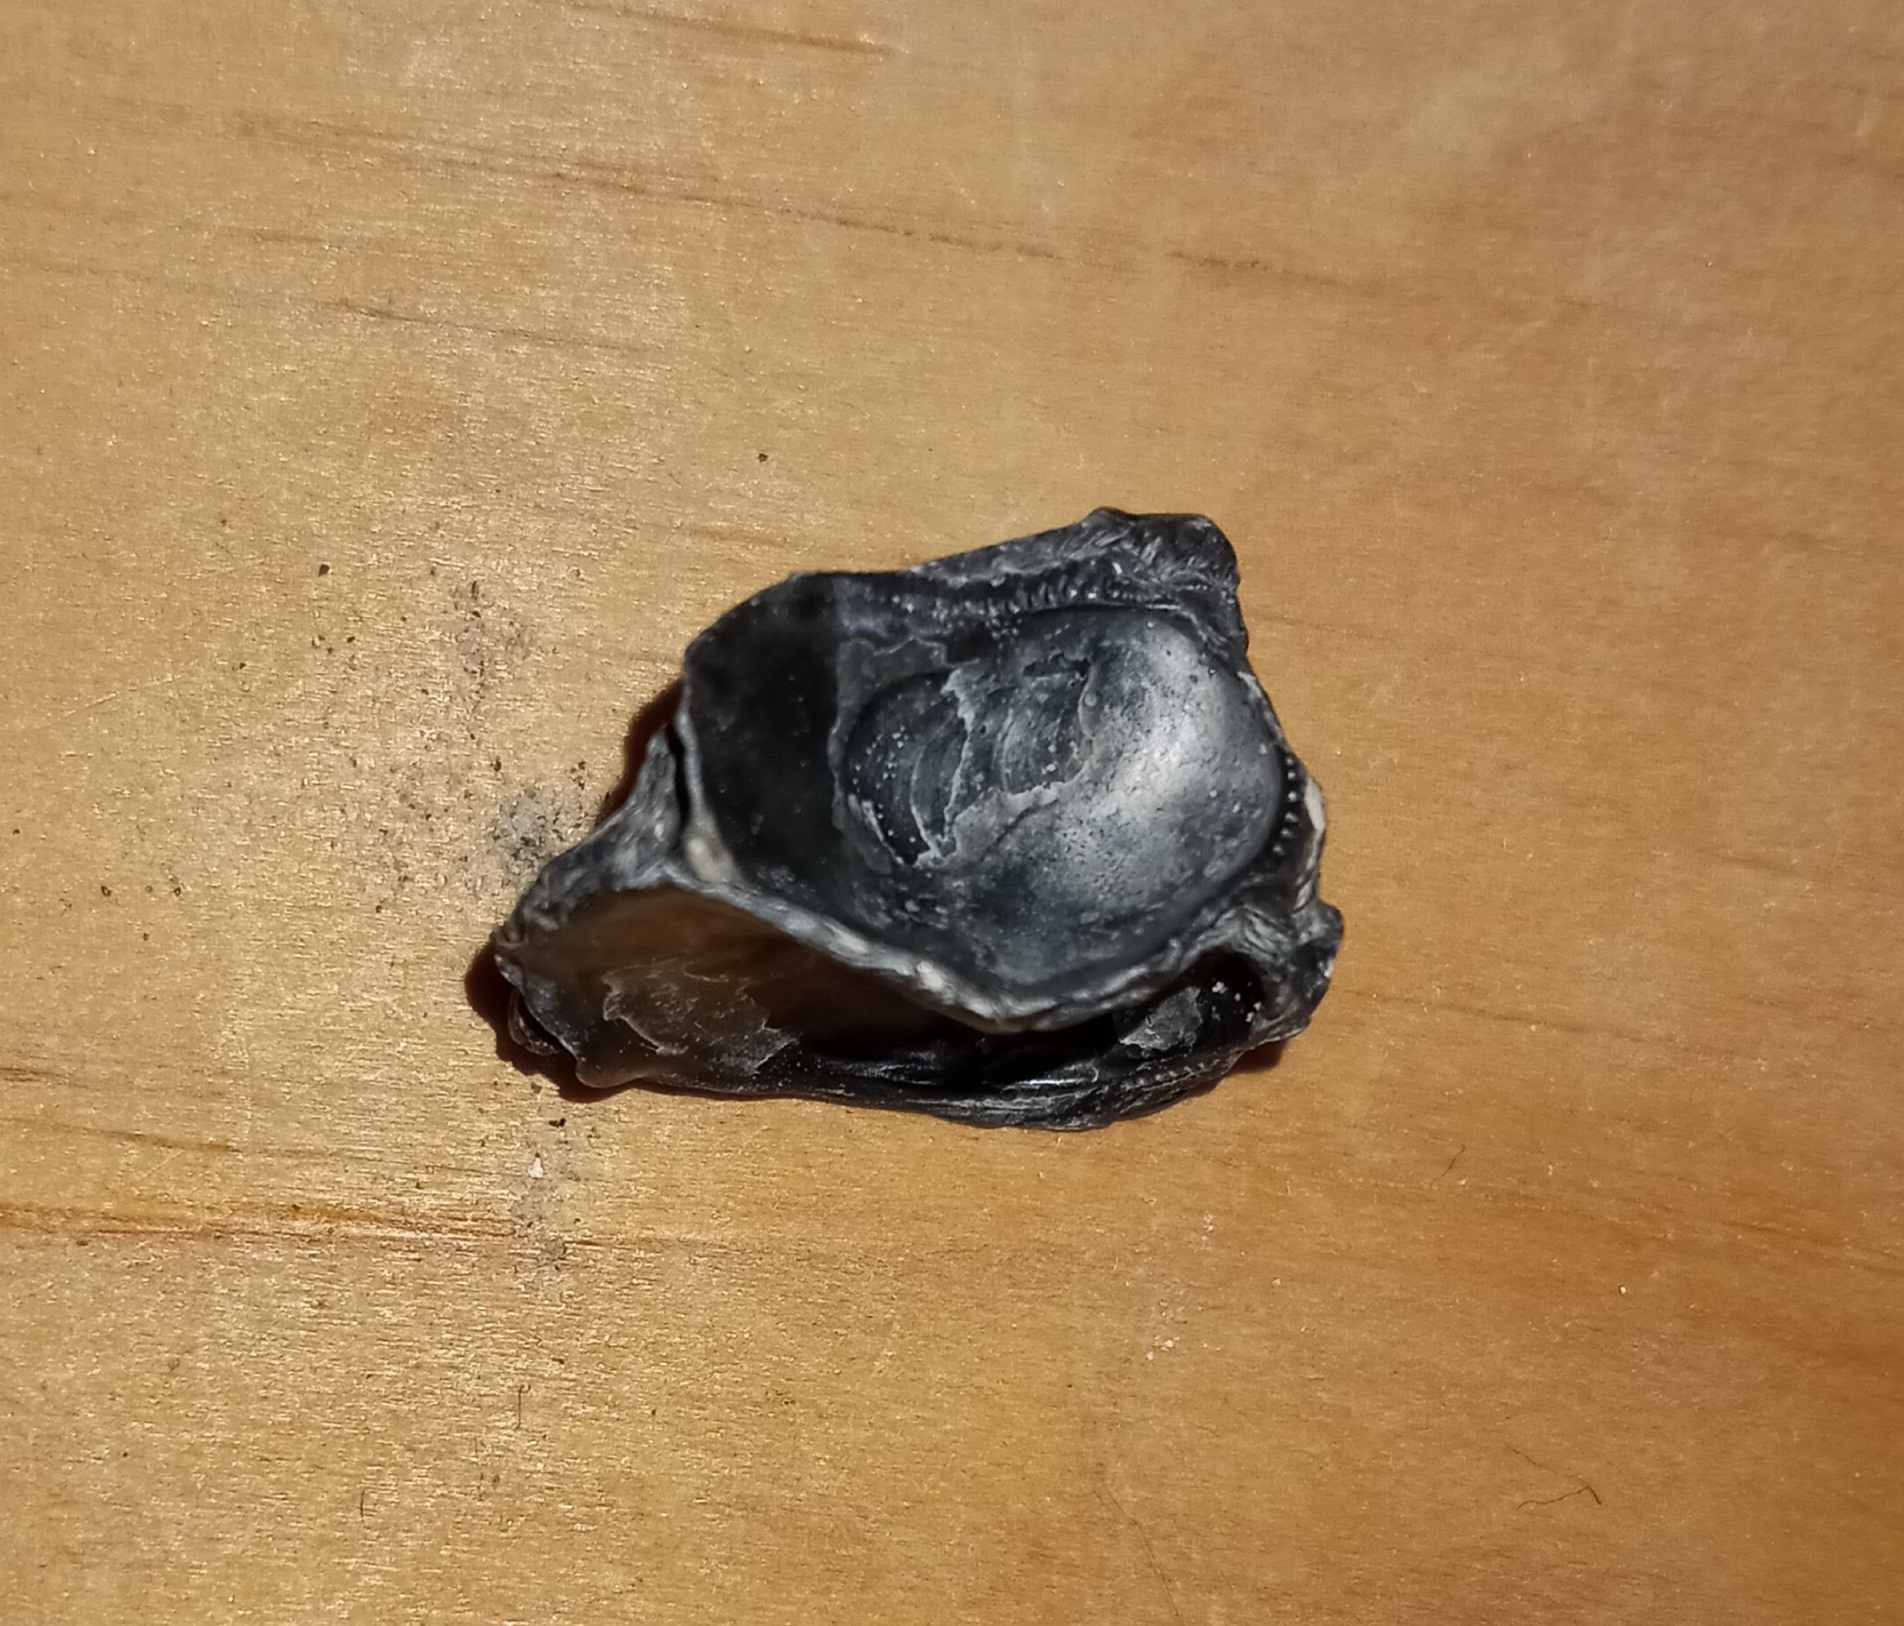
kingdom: Animalia
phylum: Mollusca
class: Bivalvia
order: Ostreida
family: Ostreidae
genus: Crassostrea
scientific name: Crassostrea virginica
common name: American oyster
